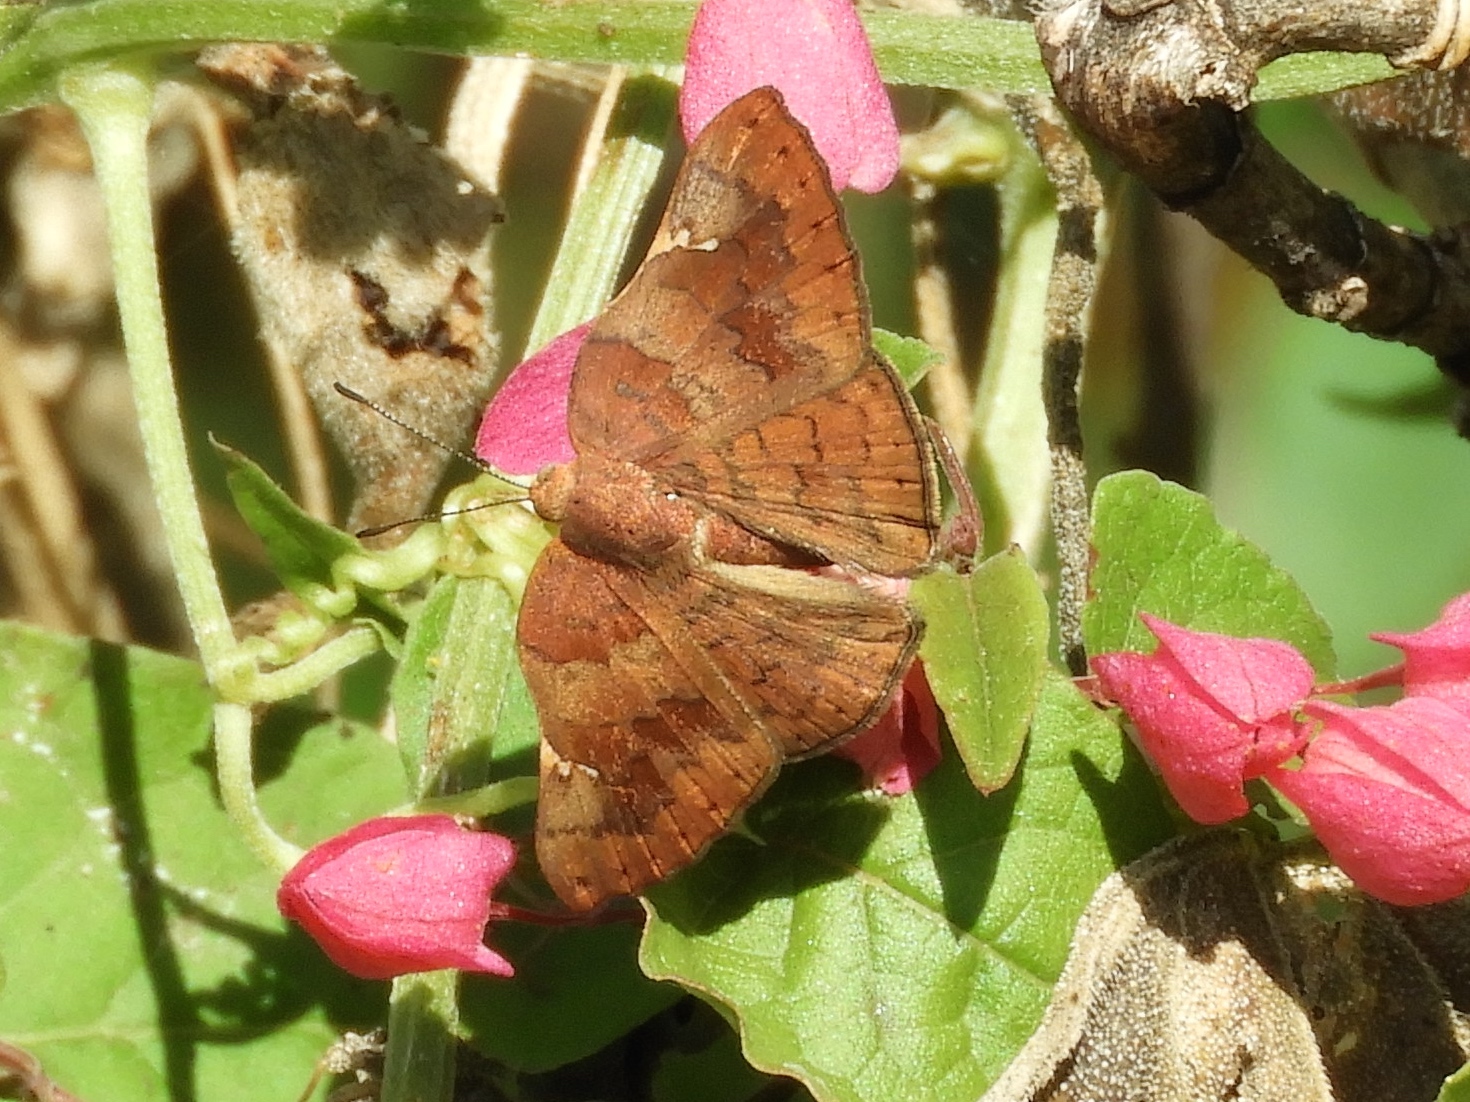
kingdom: Animalia
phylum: Arthropoda
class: Insecta
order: Lepidoptera
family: Riodinidae
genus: Curvie
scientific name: Curvie emesia
